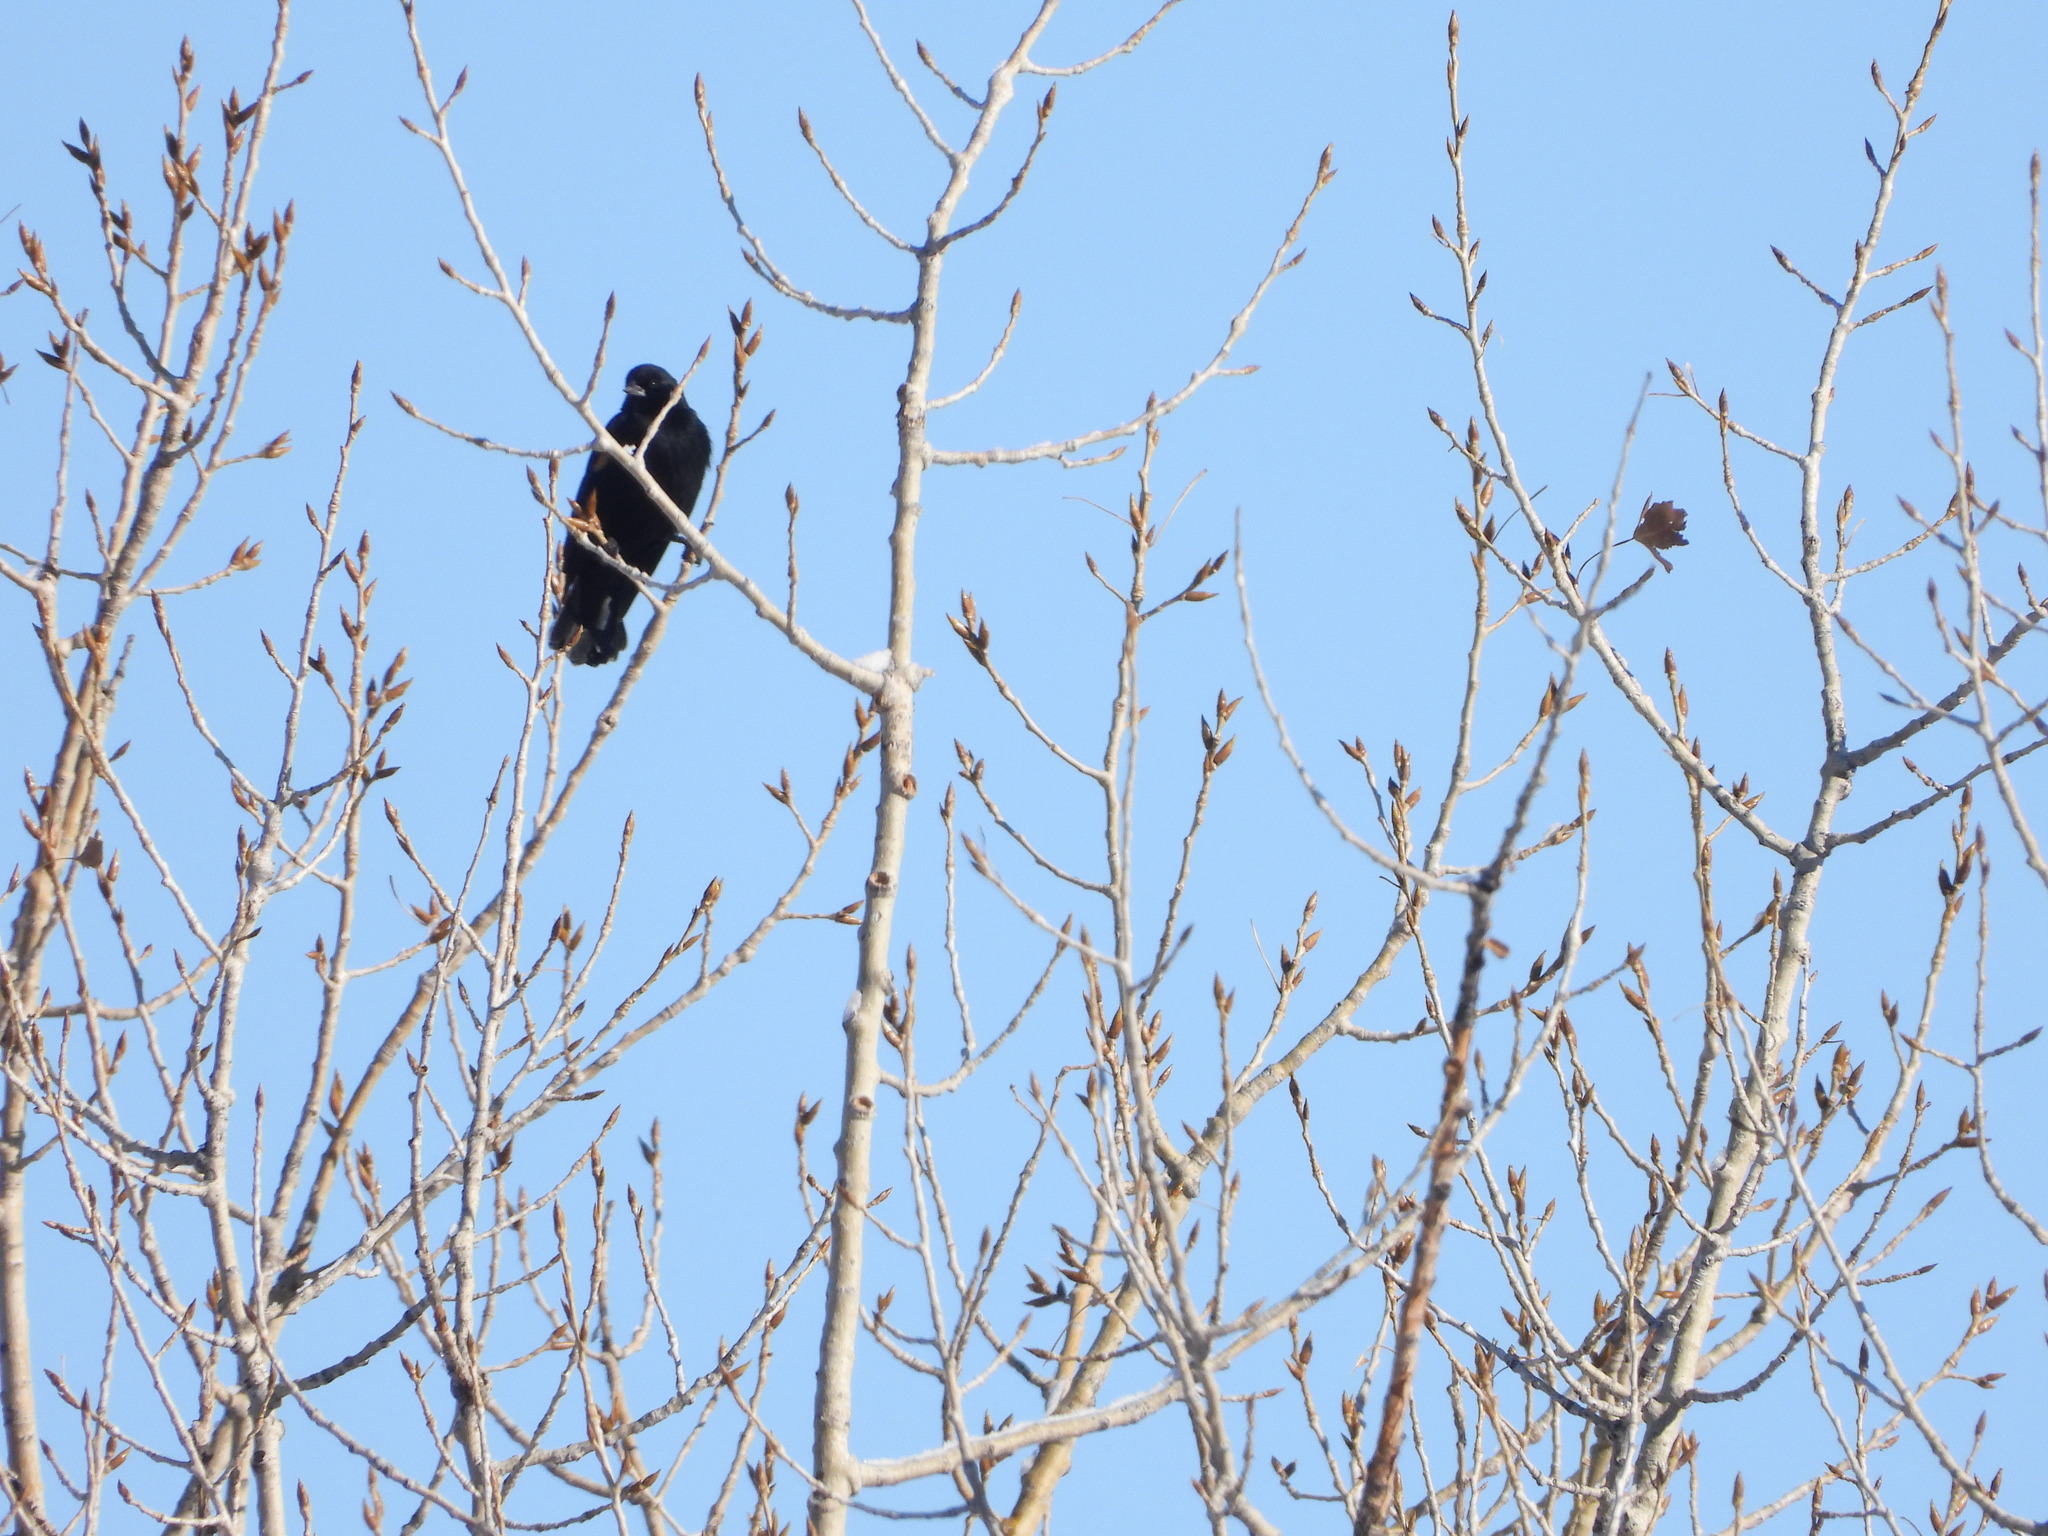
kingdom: Animalia
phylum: Chordata
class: Aves
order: Passeriformes
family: Icteridae
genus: Agelaius
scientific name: Agelaius phoeniceus
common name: Red-winged blackbird
